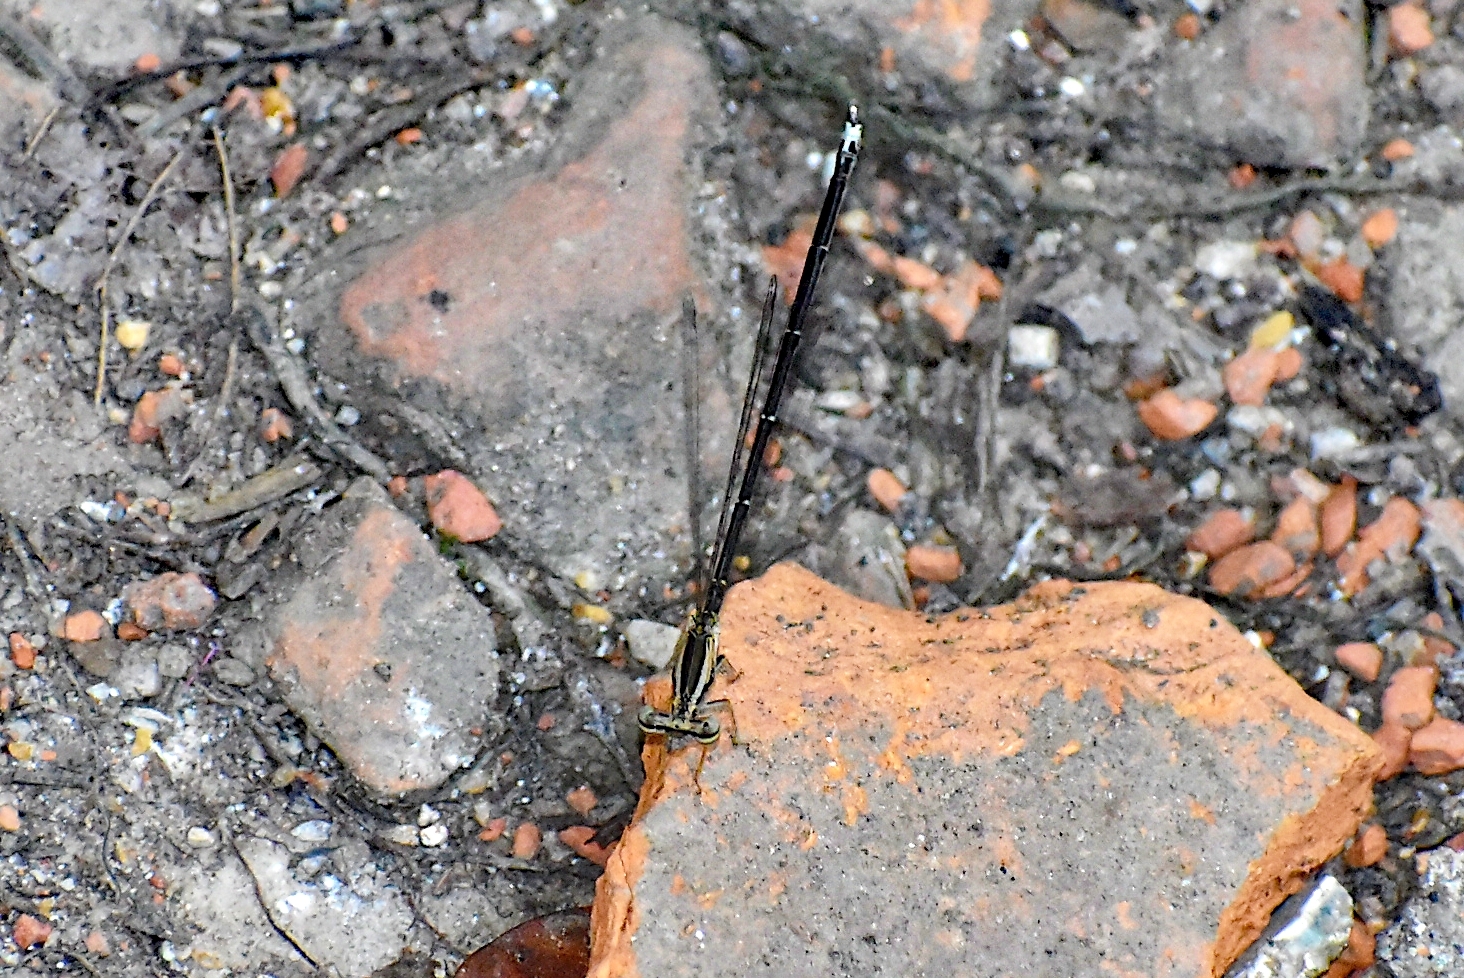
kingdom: Animalia
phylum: Arthropoda
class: Insecta
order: Odonata
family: Platycnemididae
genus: Copera
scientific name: Copera marginipes
